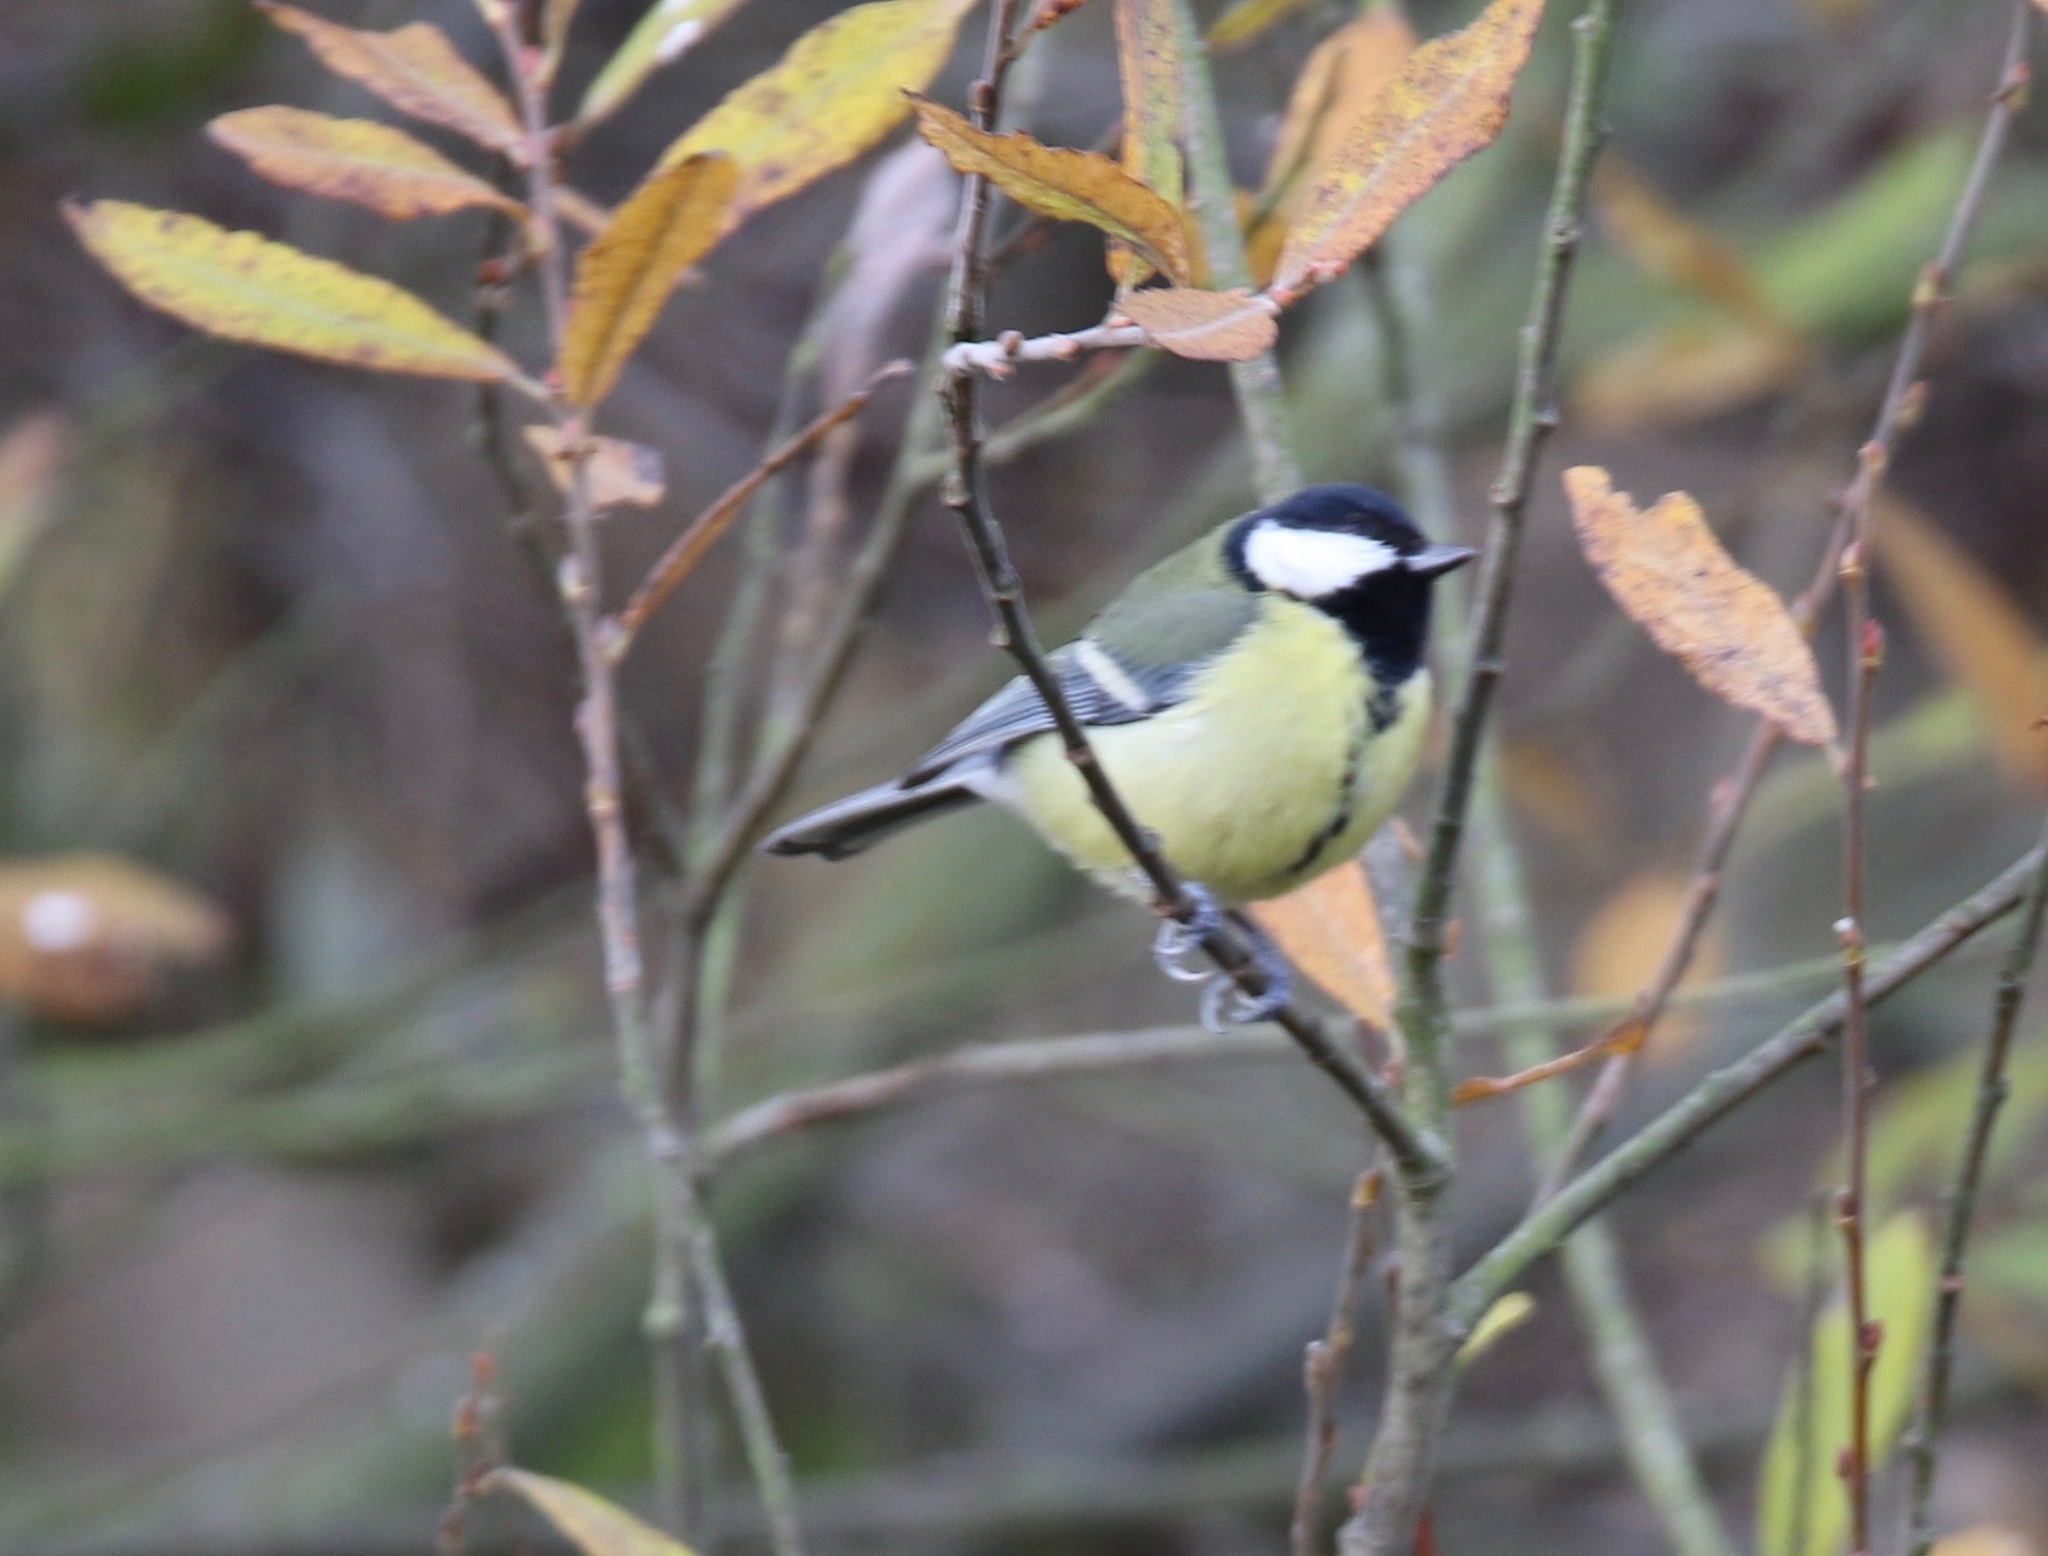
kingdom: Animalia
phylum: Chordata
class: Aves
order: Passeriformes
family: Paridae
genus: Parus
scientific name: Parus major
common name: Great tit
